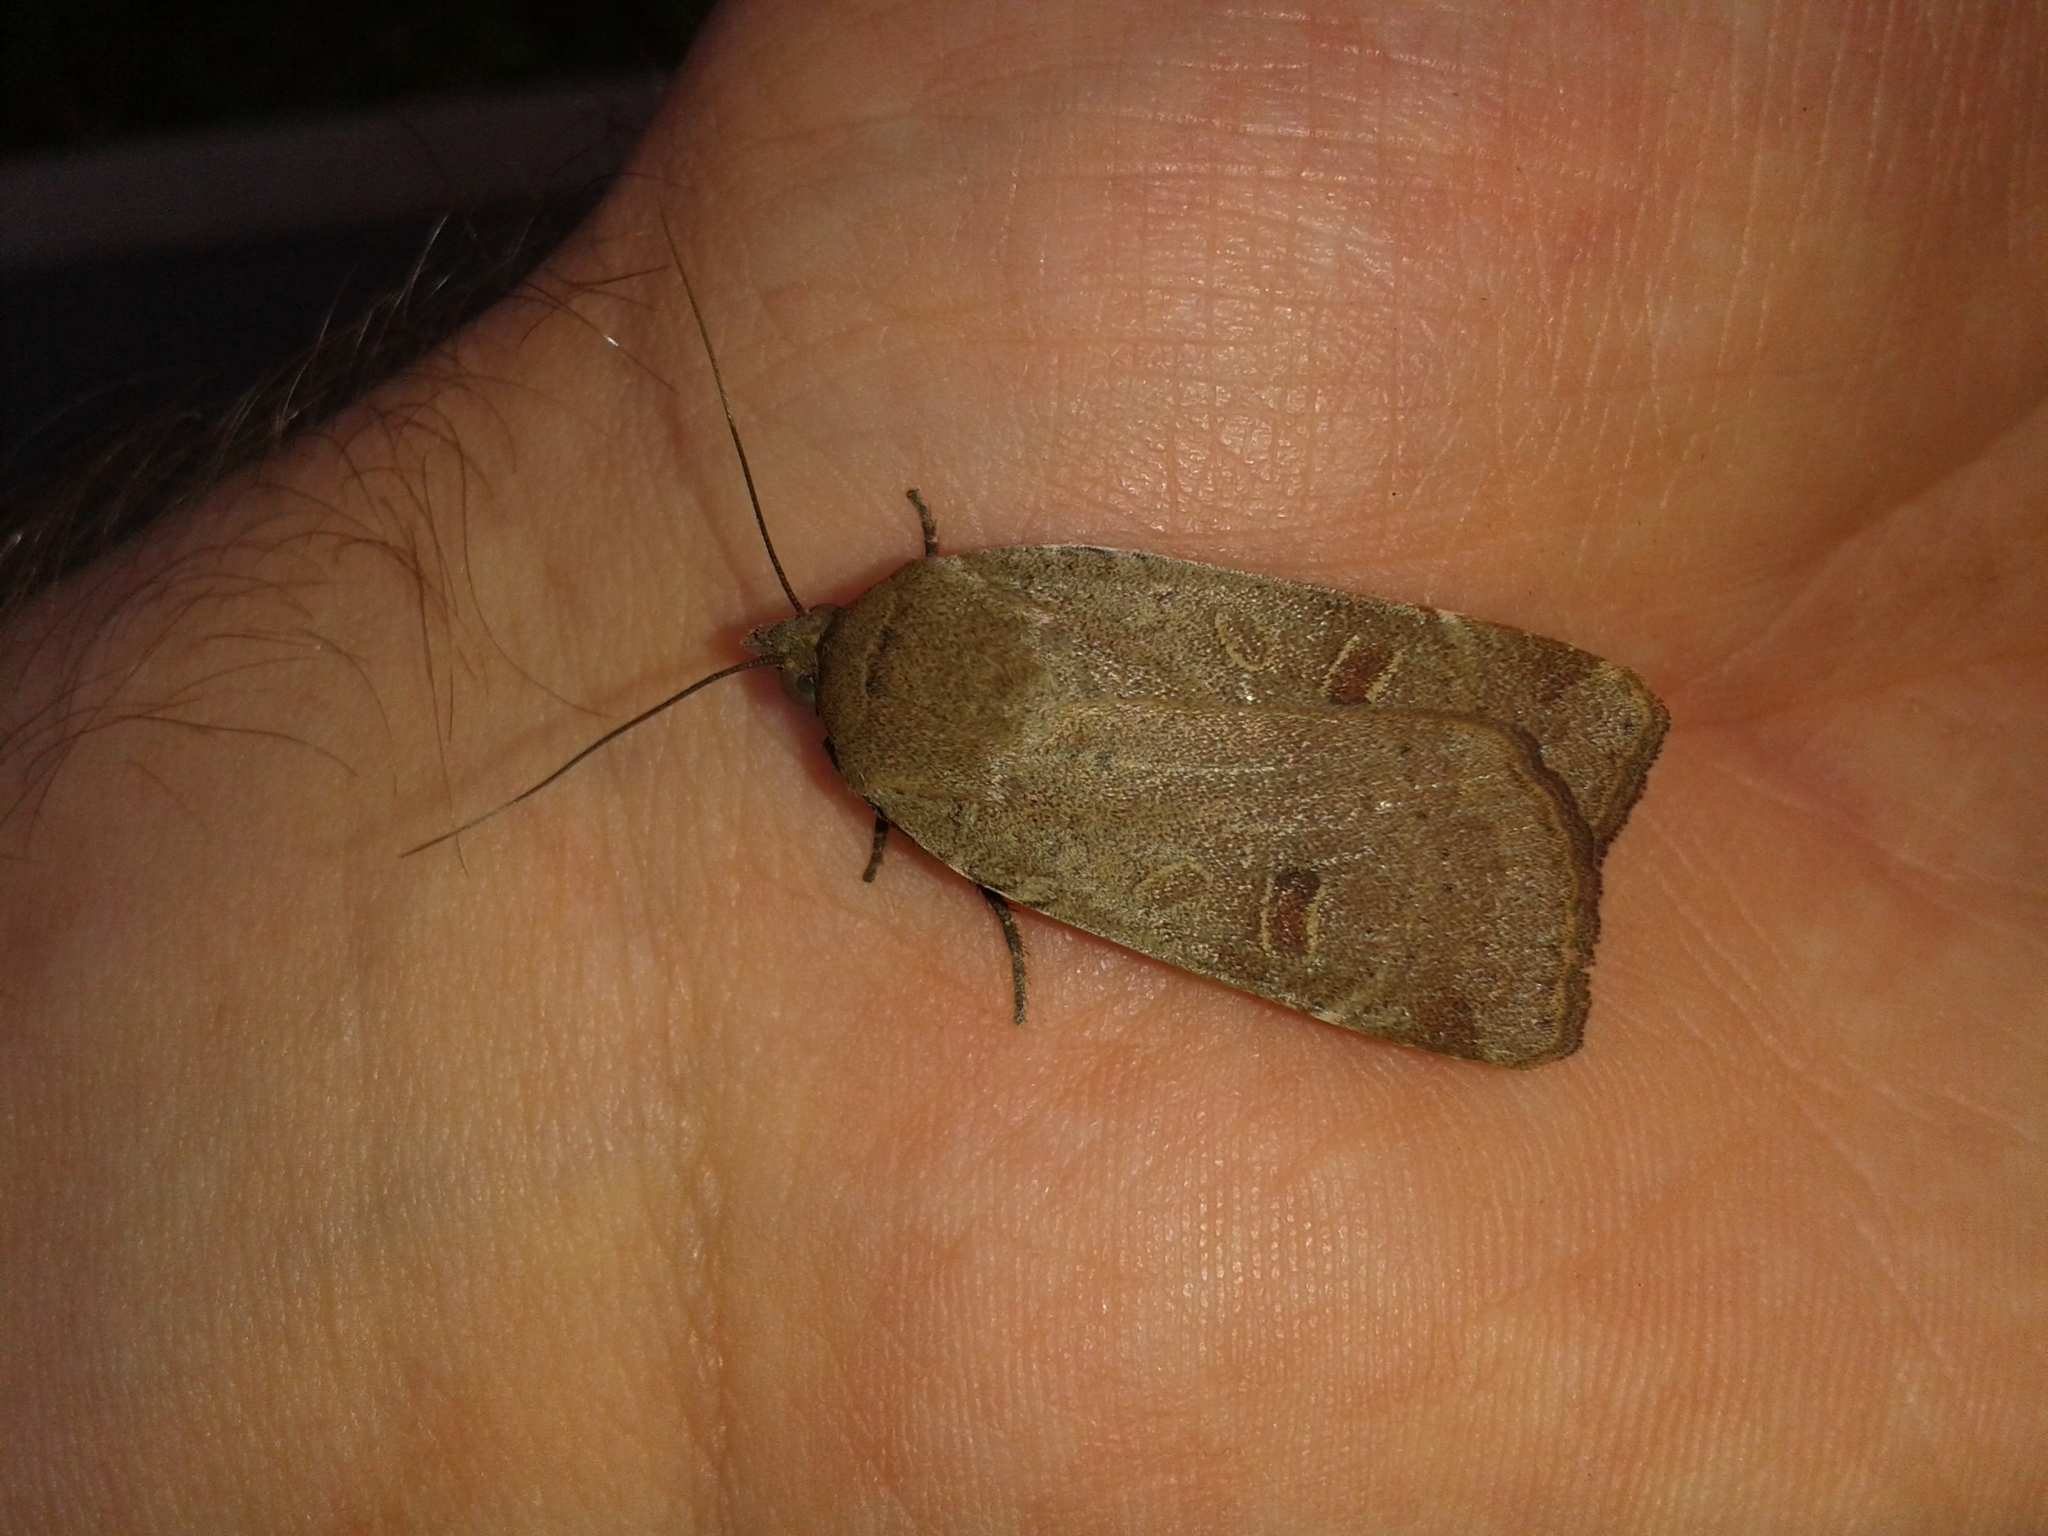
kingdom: Animalia
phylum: Arthropoda
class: Insecta
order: Lepidoptera
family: Noctuidae
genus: Noctua
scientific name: Noctua comes
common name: Lesser yellow underwing
